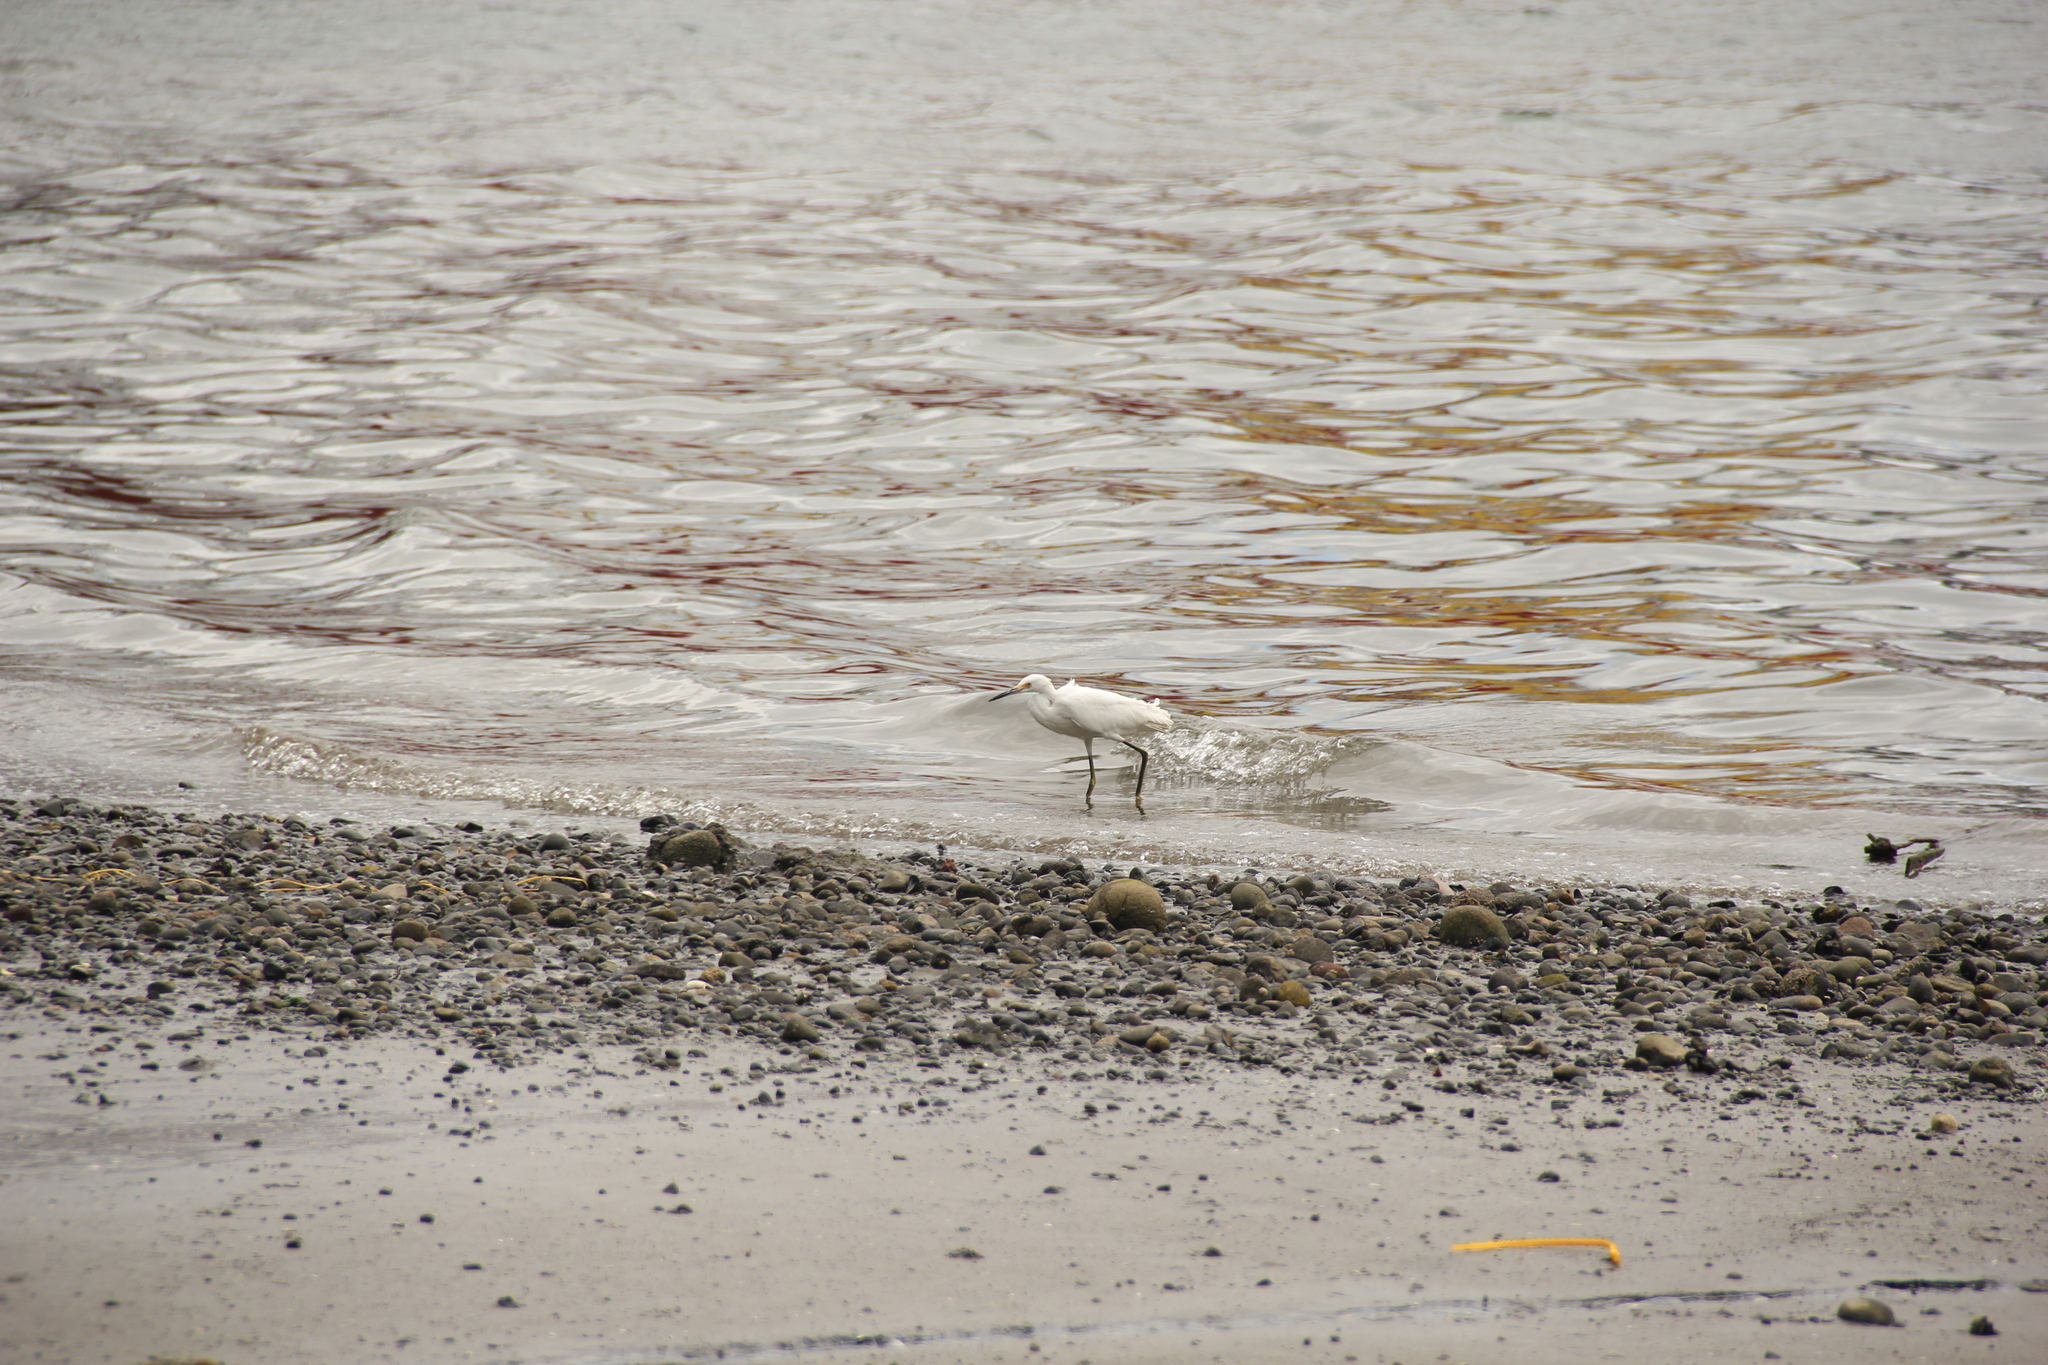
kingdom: Animalia
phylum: Chordata
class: Aves
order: Pelecaniformes
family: Ardeidae
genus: Egretta
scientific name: Egretta thula
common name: Snowy egret
